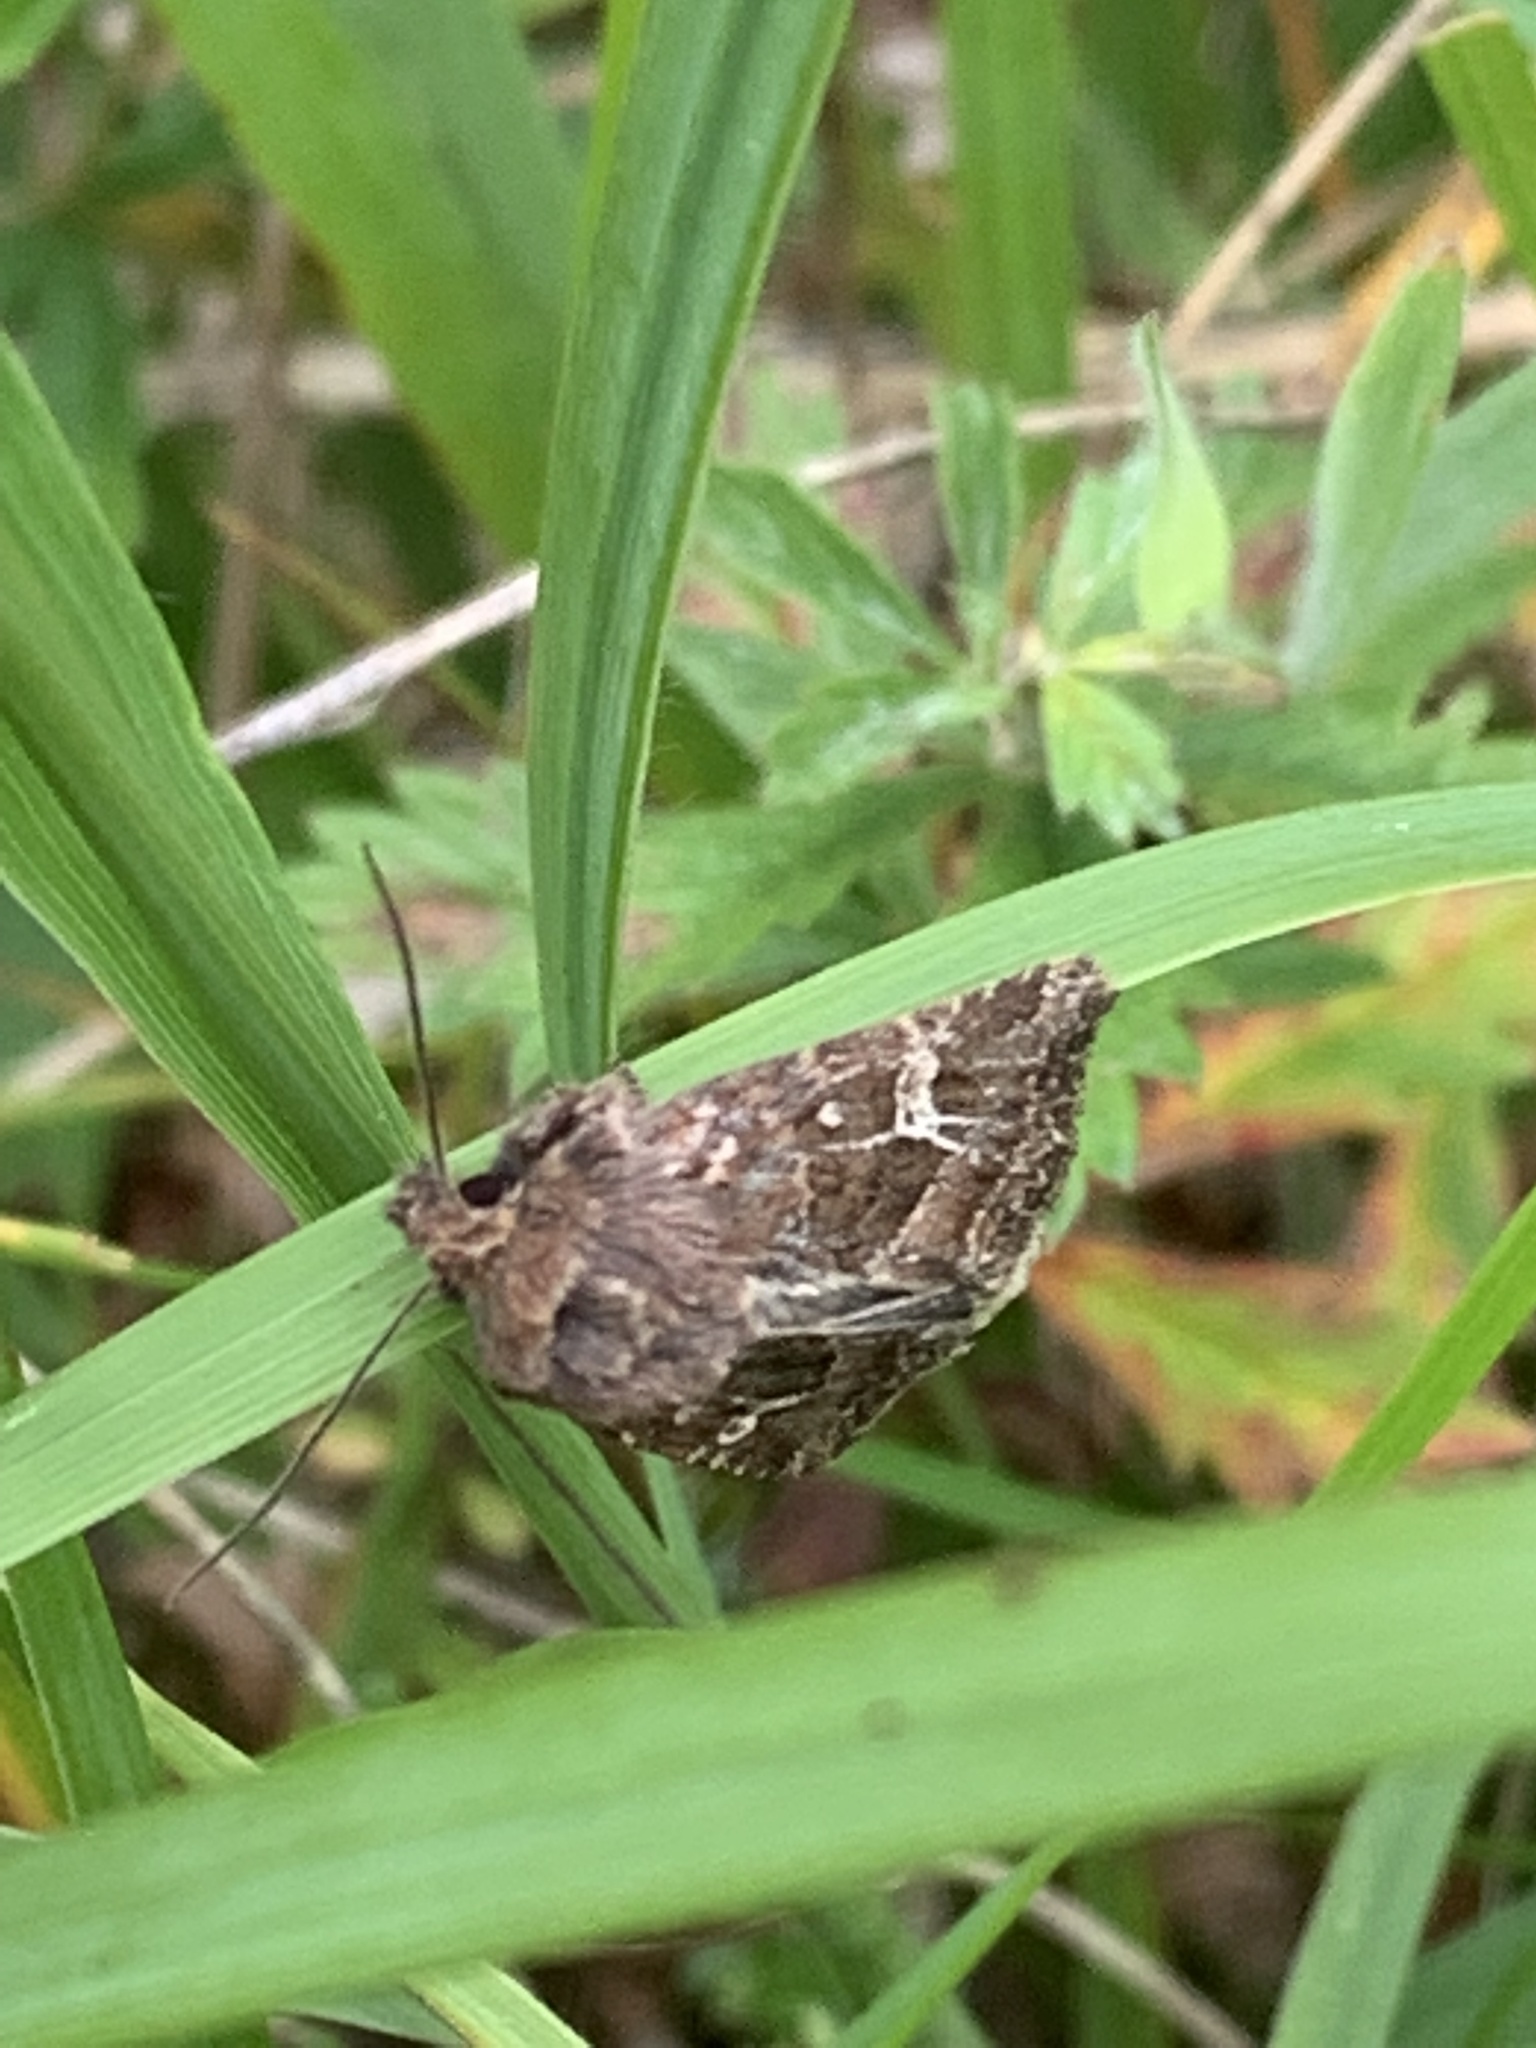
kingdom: Animalia
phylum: Arthropoda
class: Insecta
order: Lepidoptera
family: Noctuidae
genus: Celaena
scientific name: Celaena haworthii
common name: Haworth's minor
